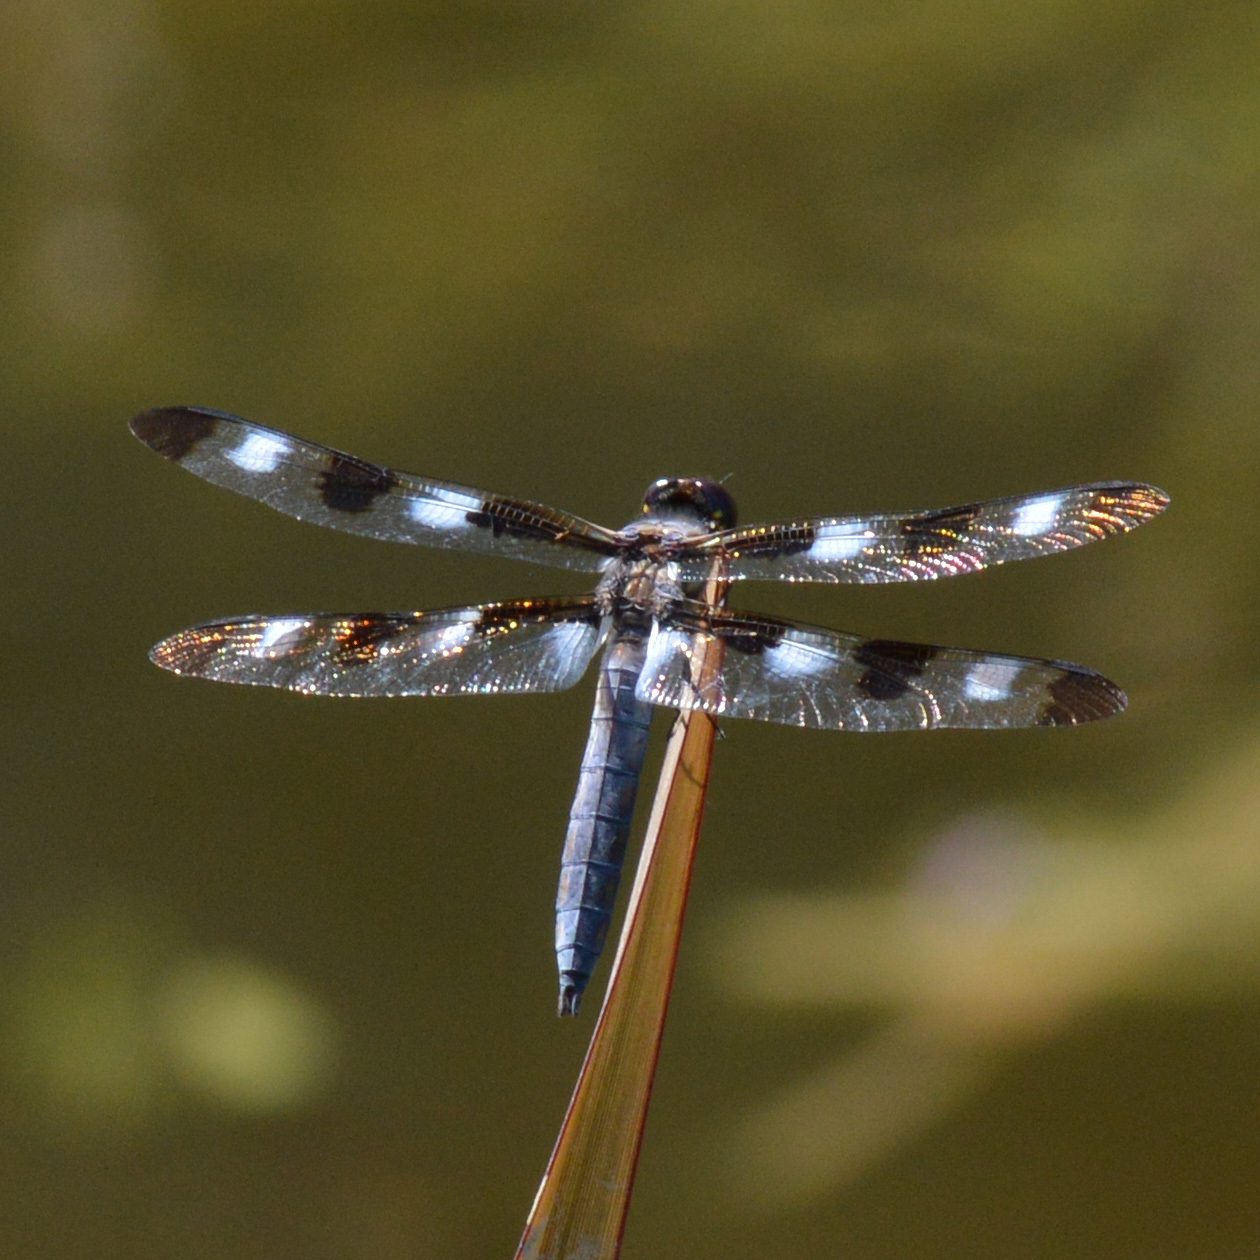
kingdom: Animalia
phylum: Arthropoda
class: Insecta
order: Odonata
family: Libellulidae
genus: Libellula
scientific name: Libellula pulchella
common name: Twelve-spotted skimmer
